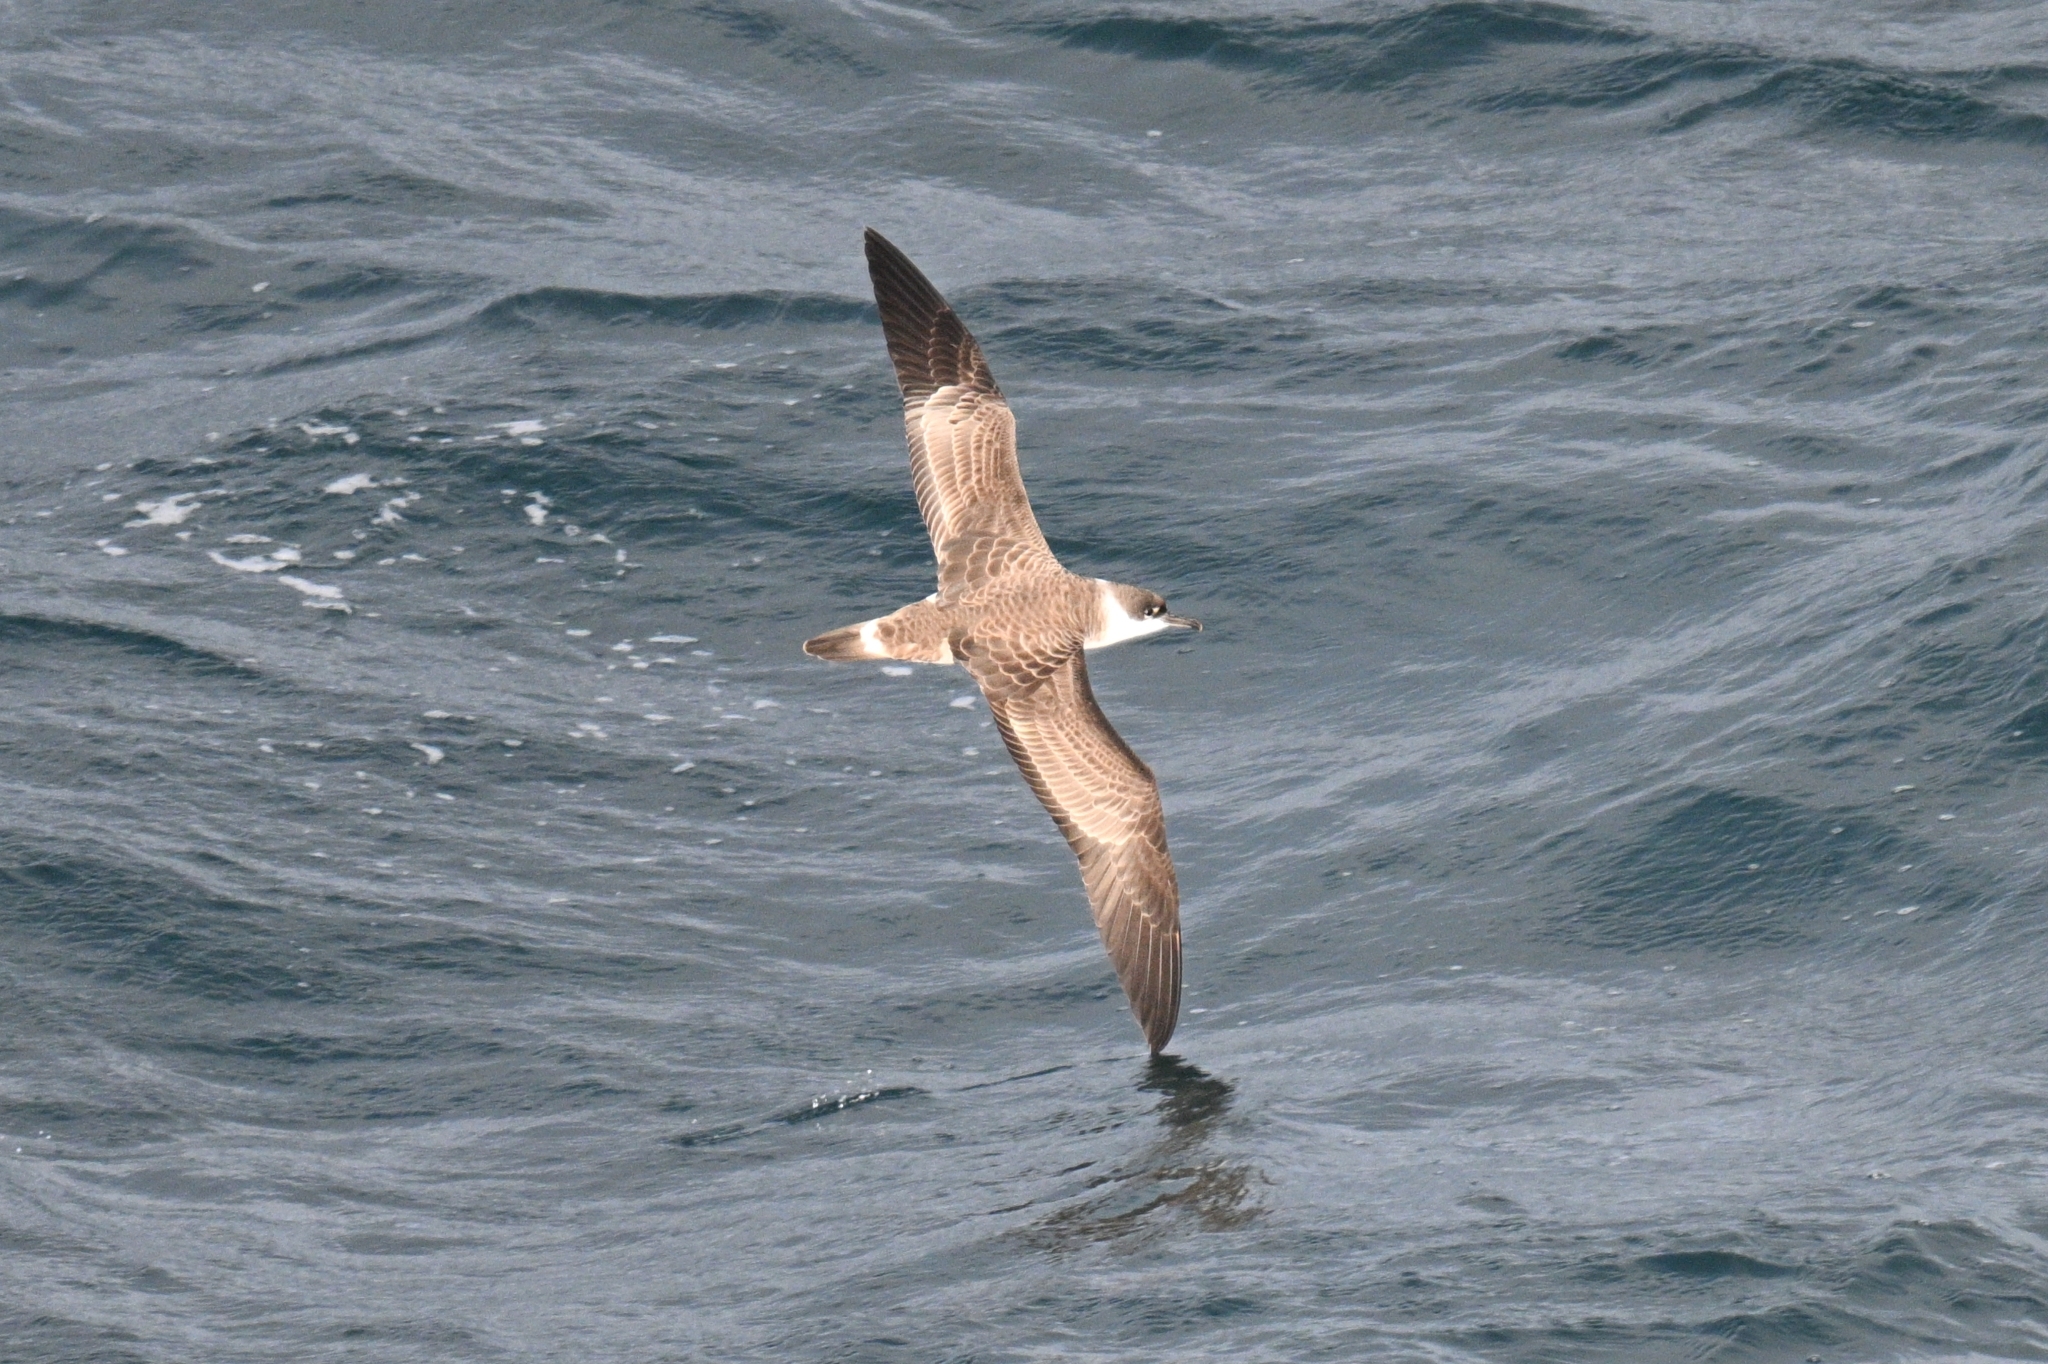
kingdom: Animalia
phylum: Chordata
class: Aves
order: Procellariiformes
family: Procellariidae
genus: Puffinus
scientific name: Puffinus gravis
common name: Great shearwater
